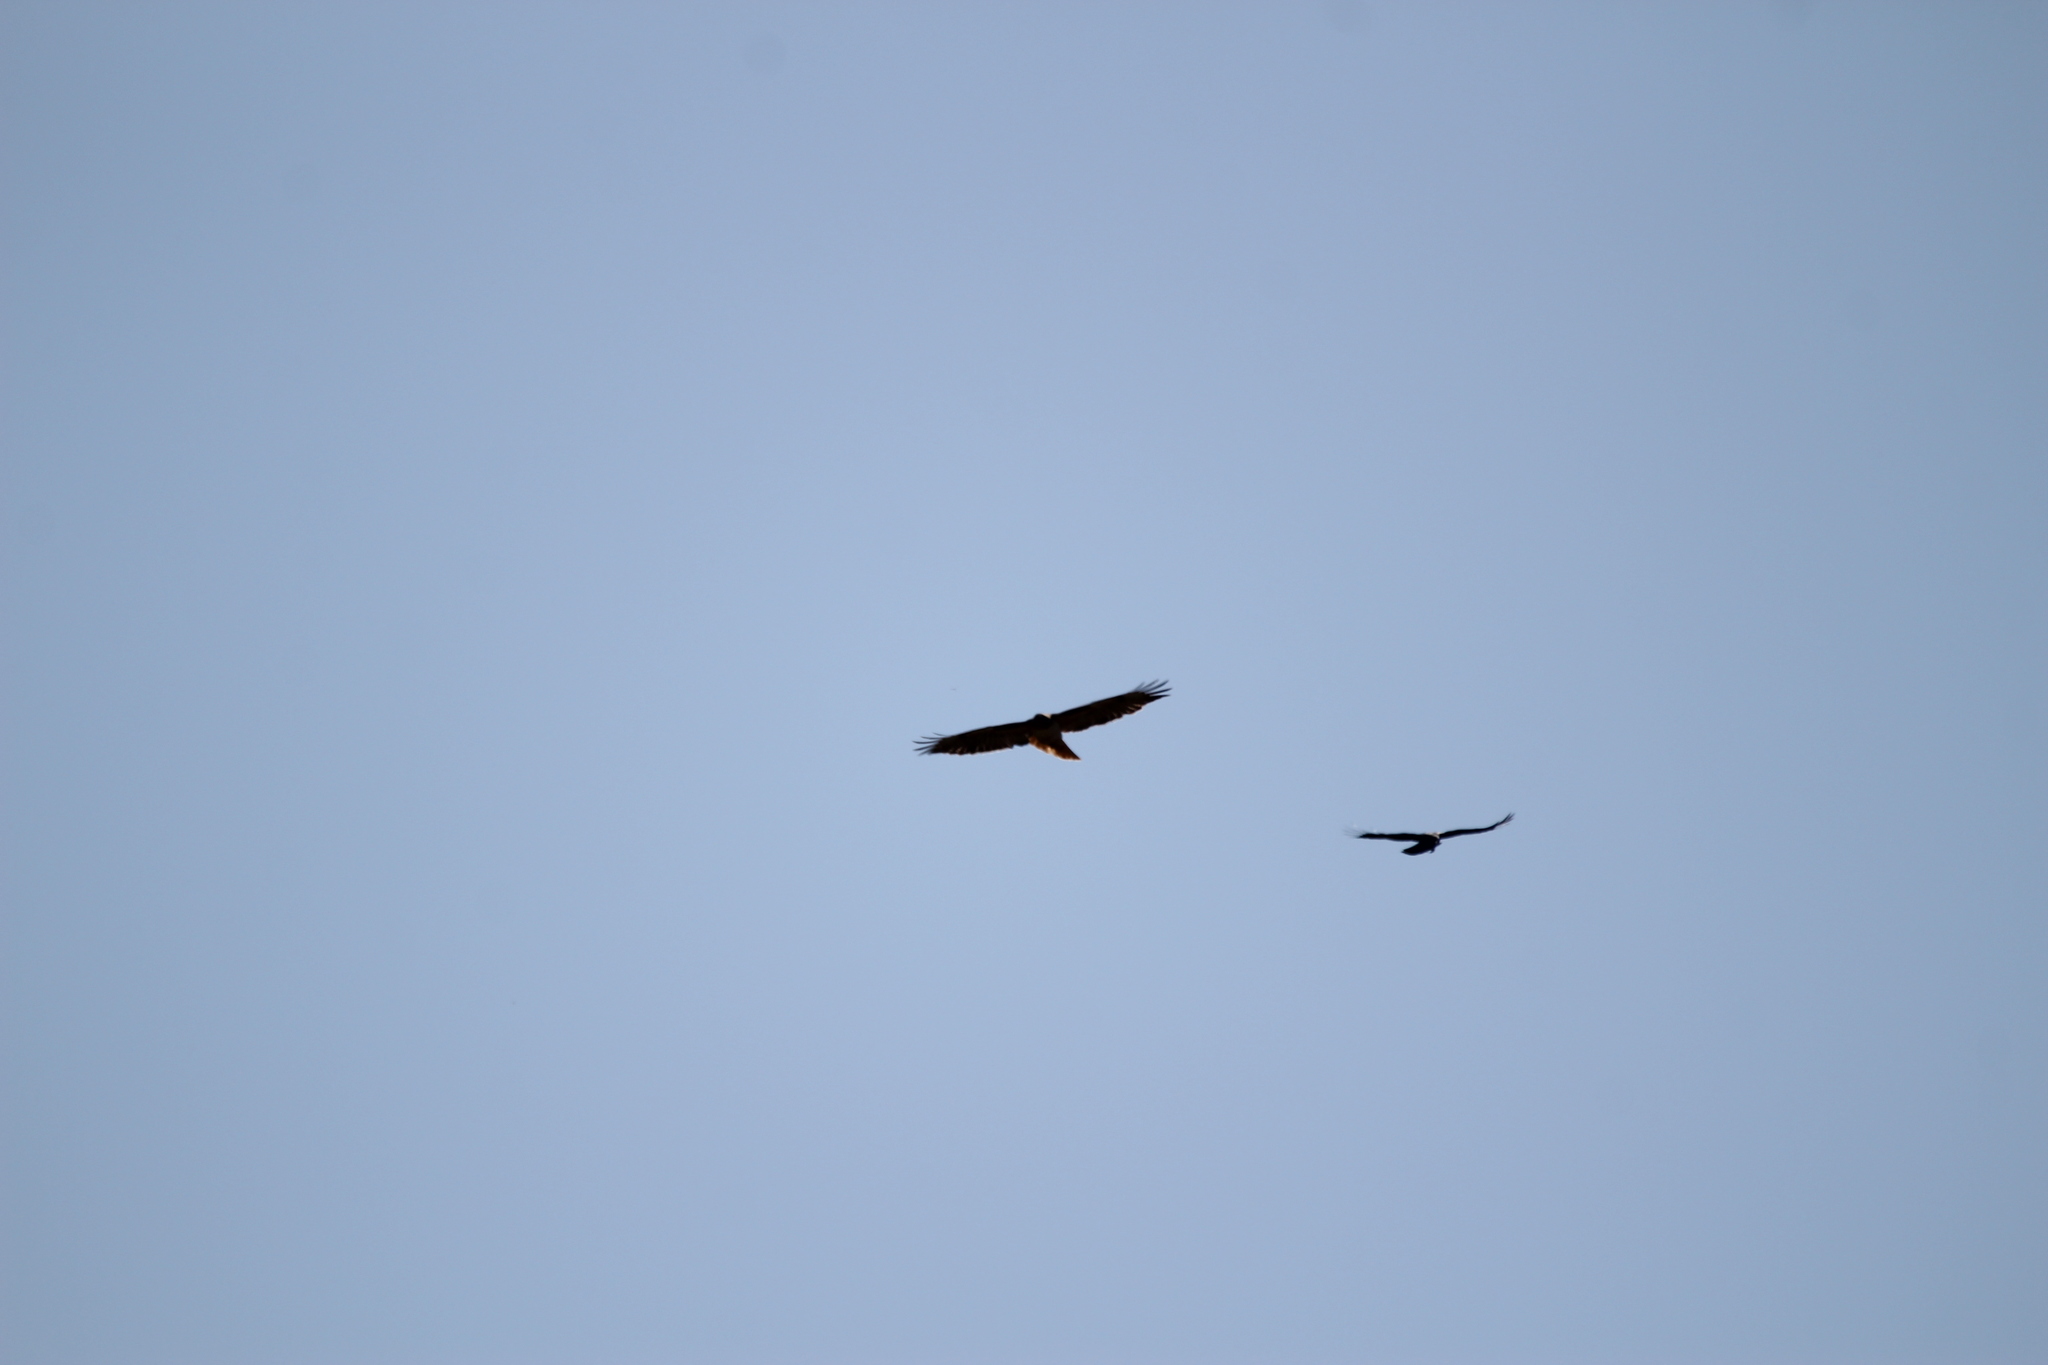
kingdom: Animalia
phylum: Chordata
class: Aves
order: Accipitriformes
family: Accipitridae
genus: Buteo
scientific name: Buteo jamaicensis
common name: Red-tailed hawk
